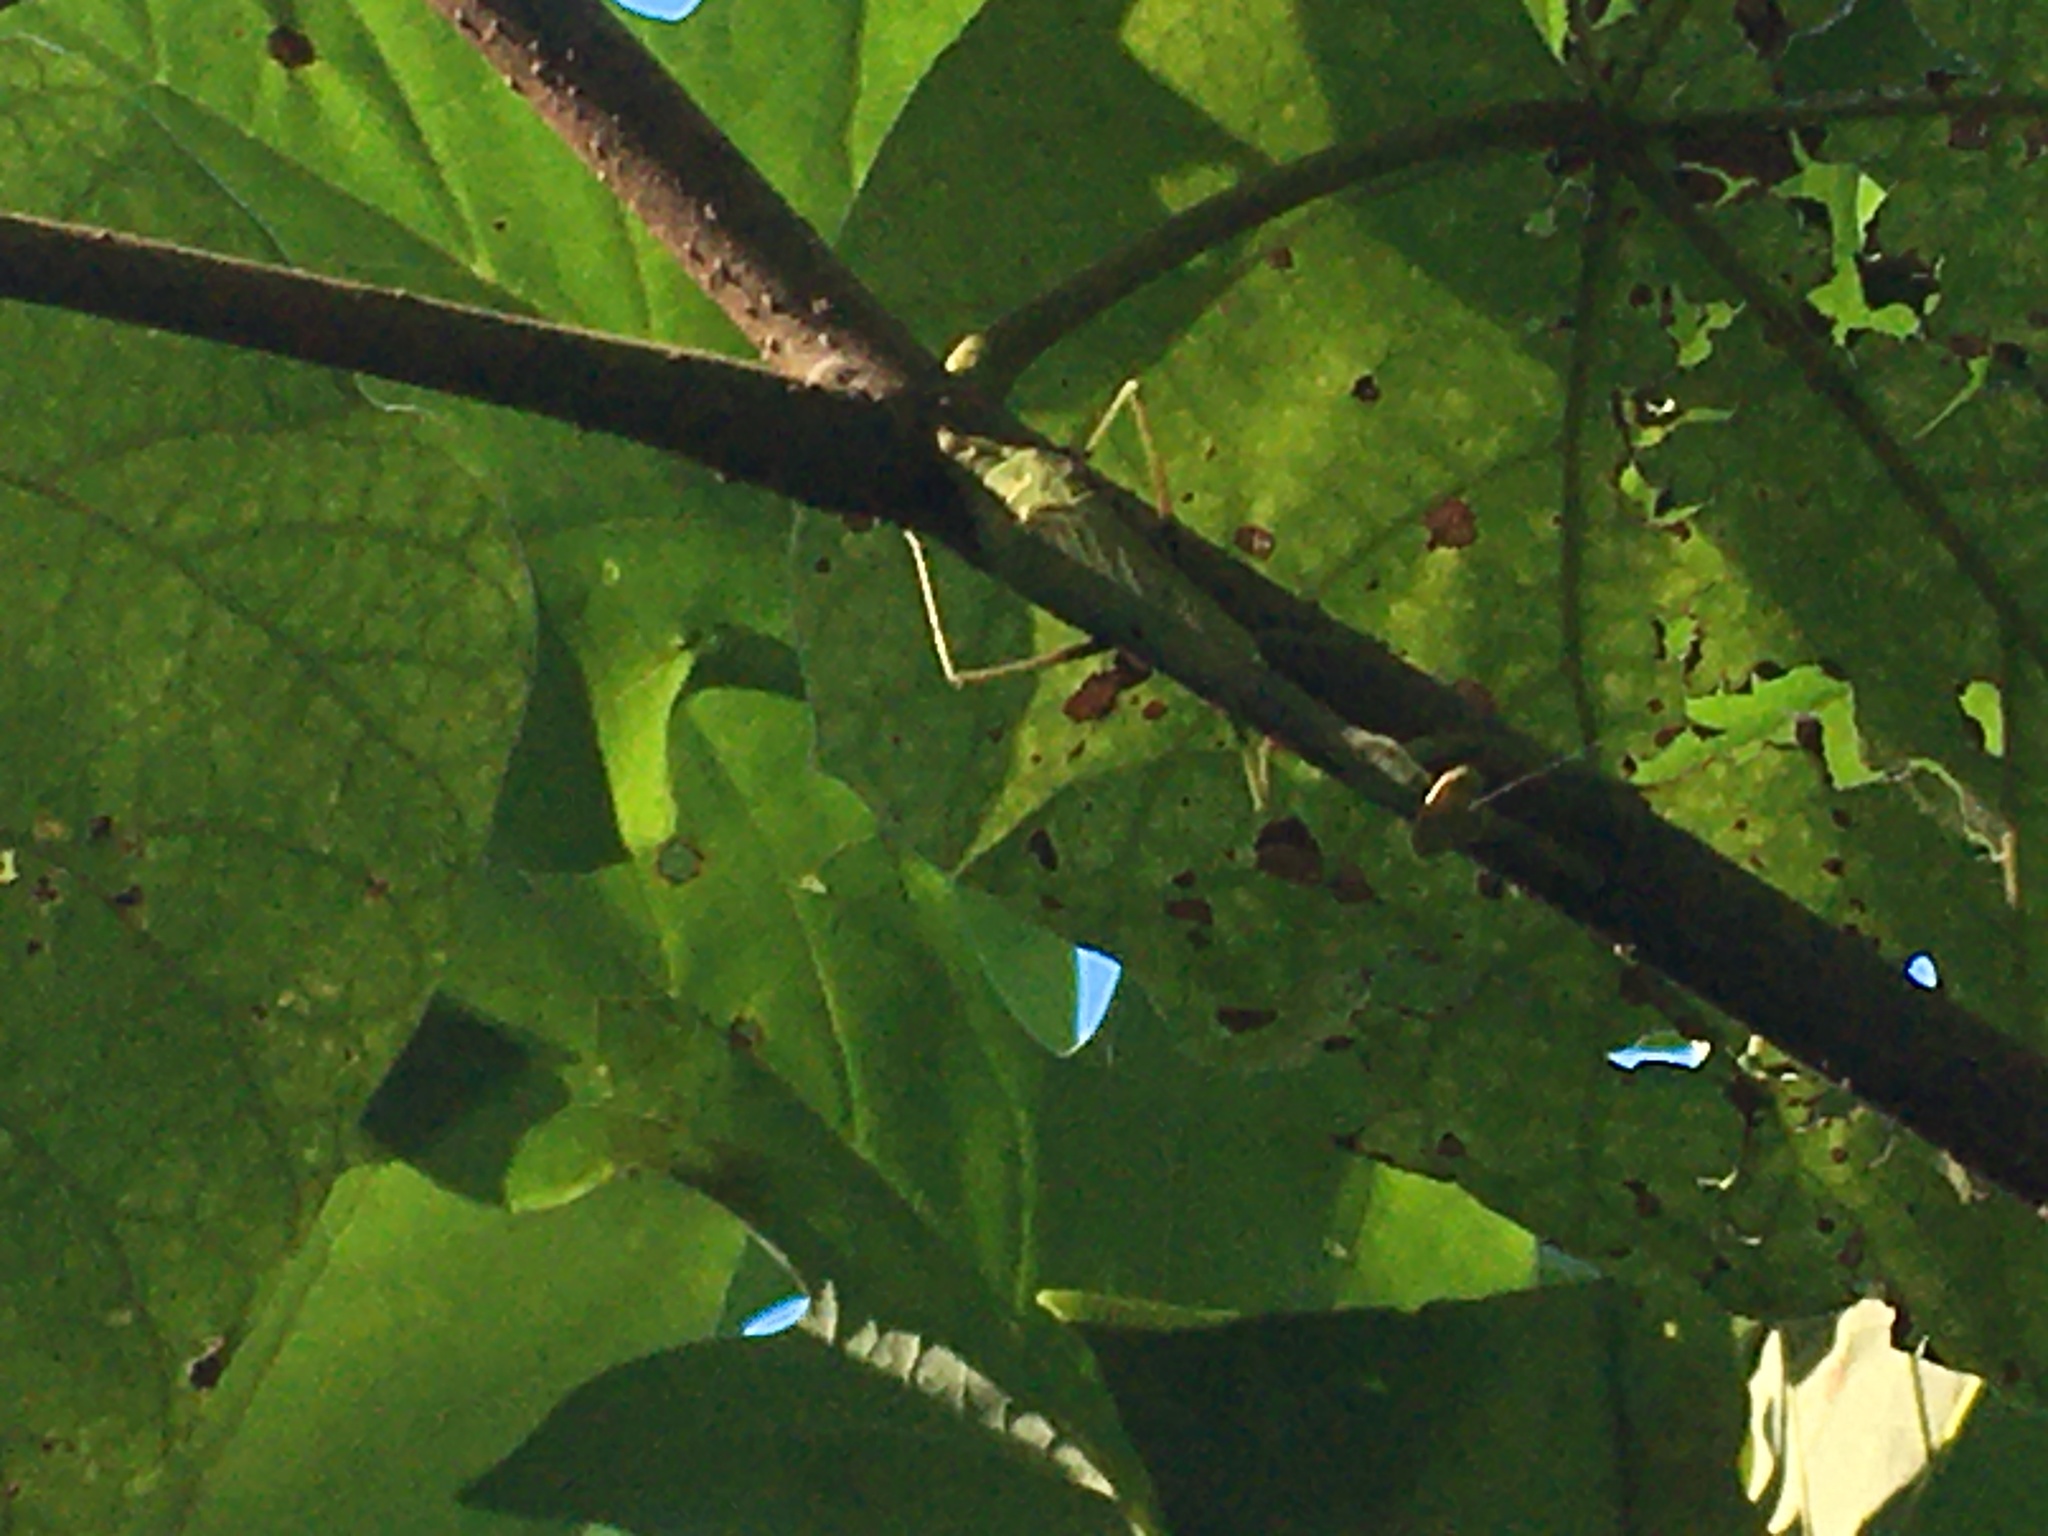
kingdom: Animalia
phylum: Arthropoda
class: Insecta
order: Mantodea
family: Mantidae
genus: Stagmomantis
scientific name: Stagmomantis carolina
